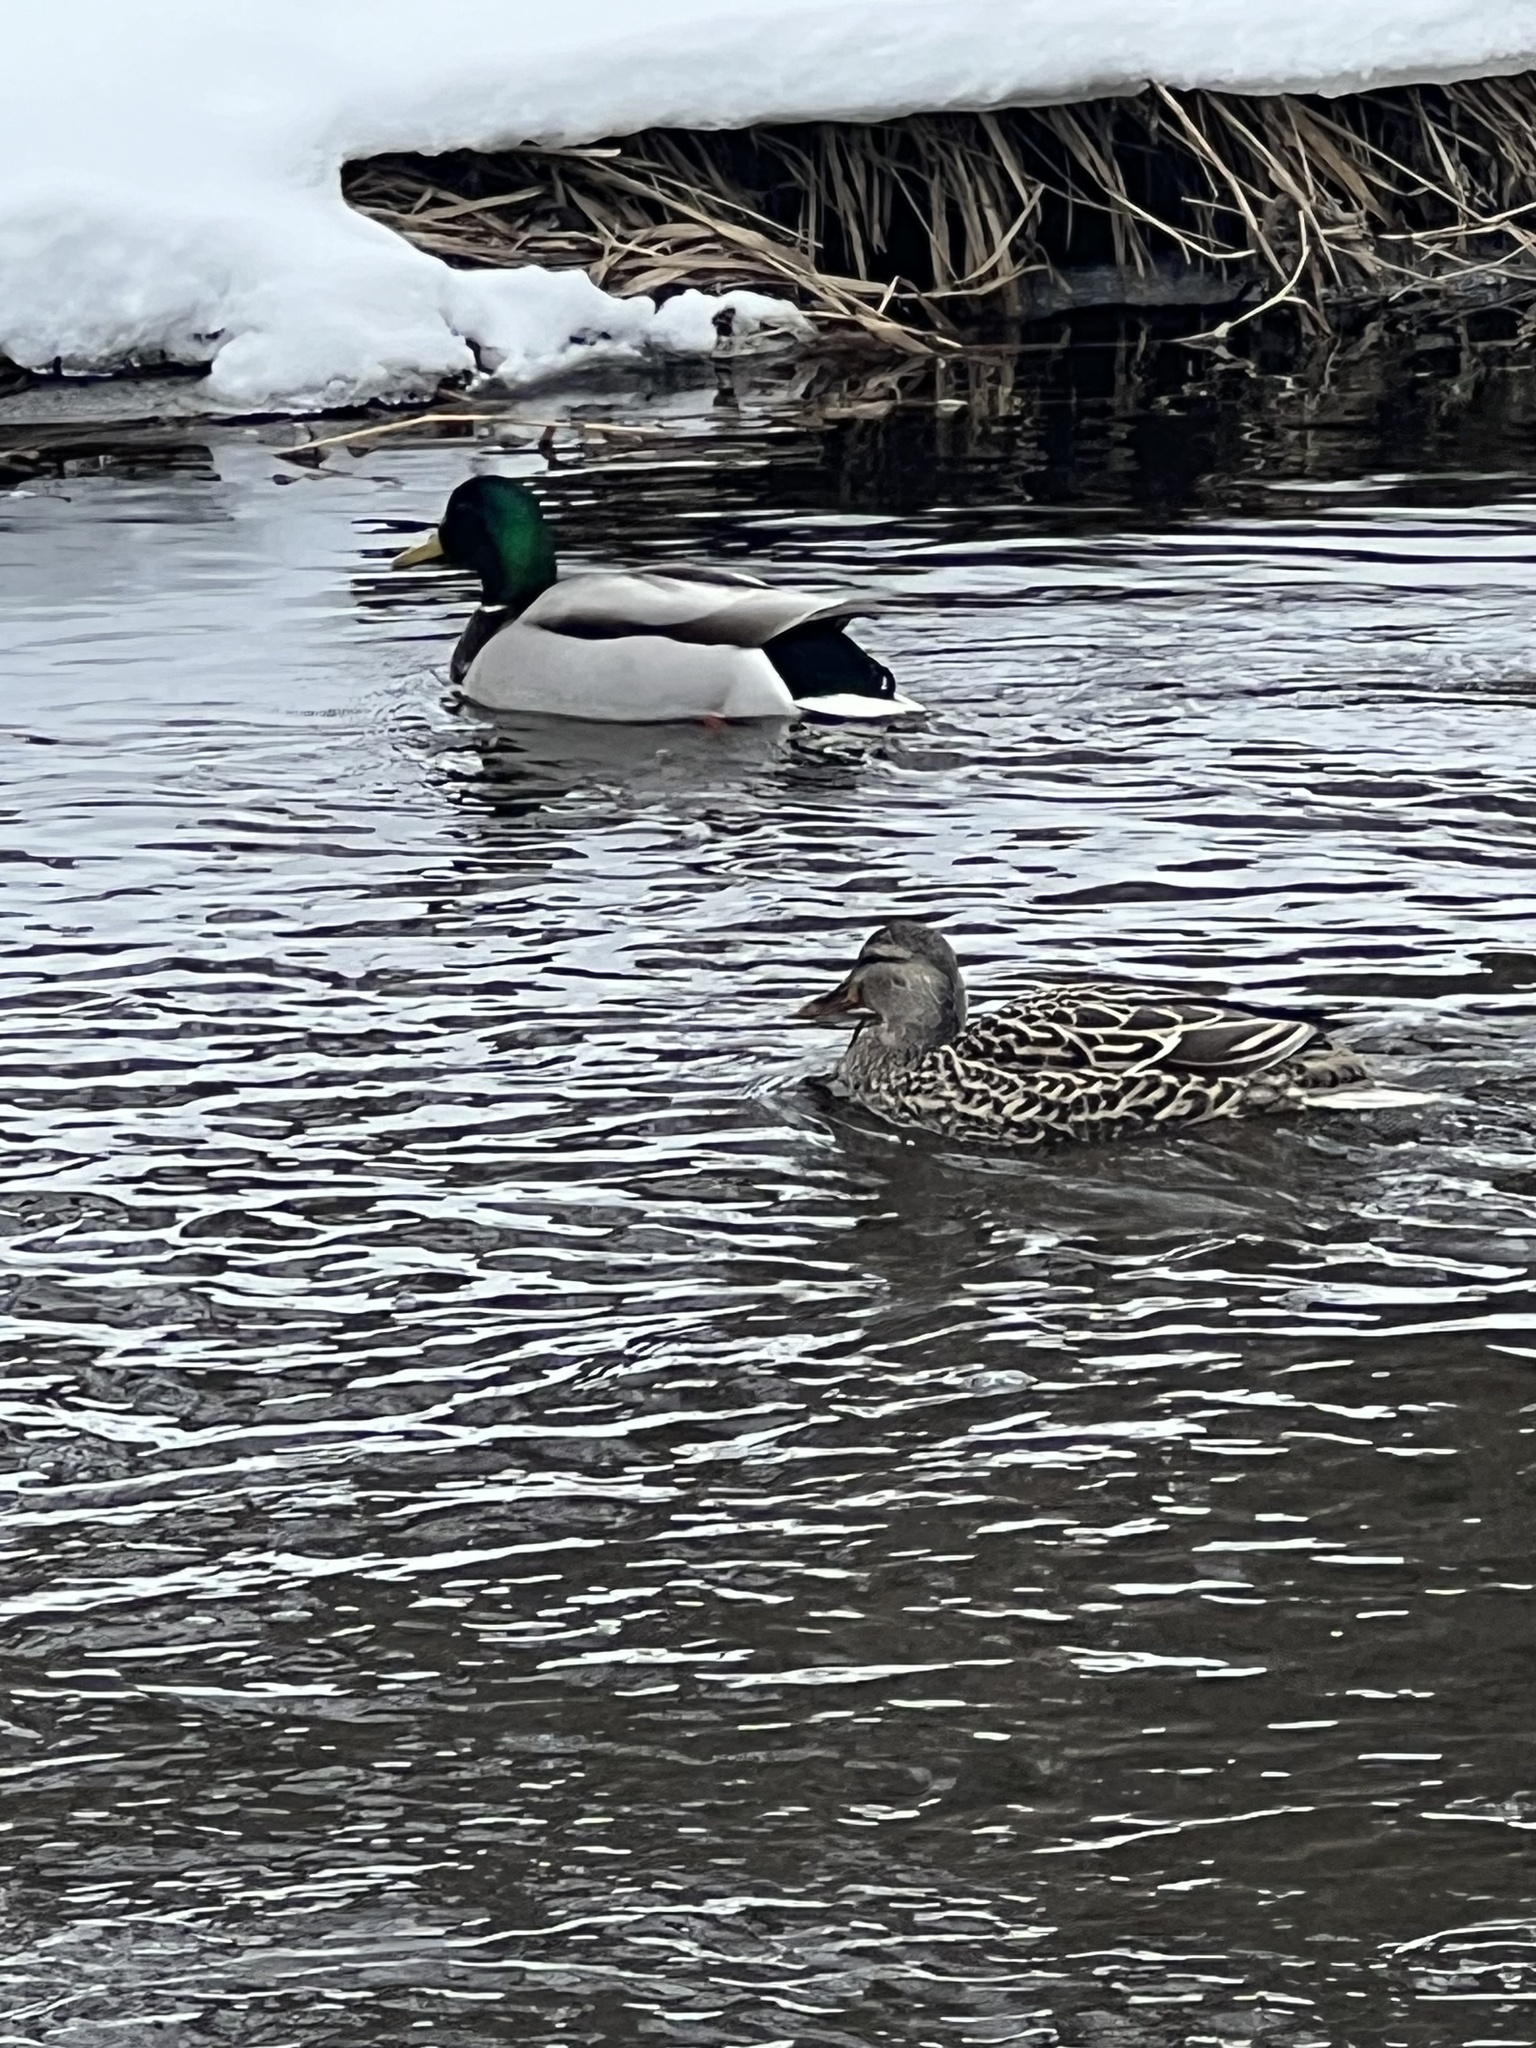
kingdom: Animalia
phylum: Chordata
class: Aves
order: Anseriformes
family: Anatidae
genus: Anas
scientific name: Anas platyrhynchos
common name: Mallard
